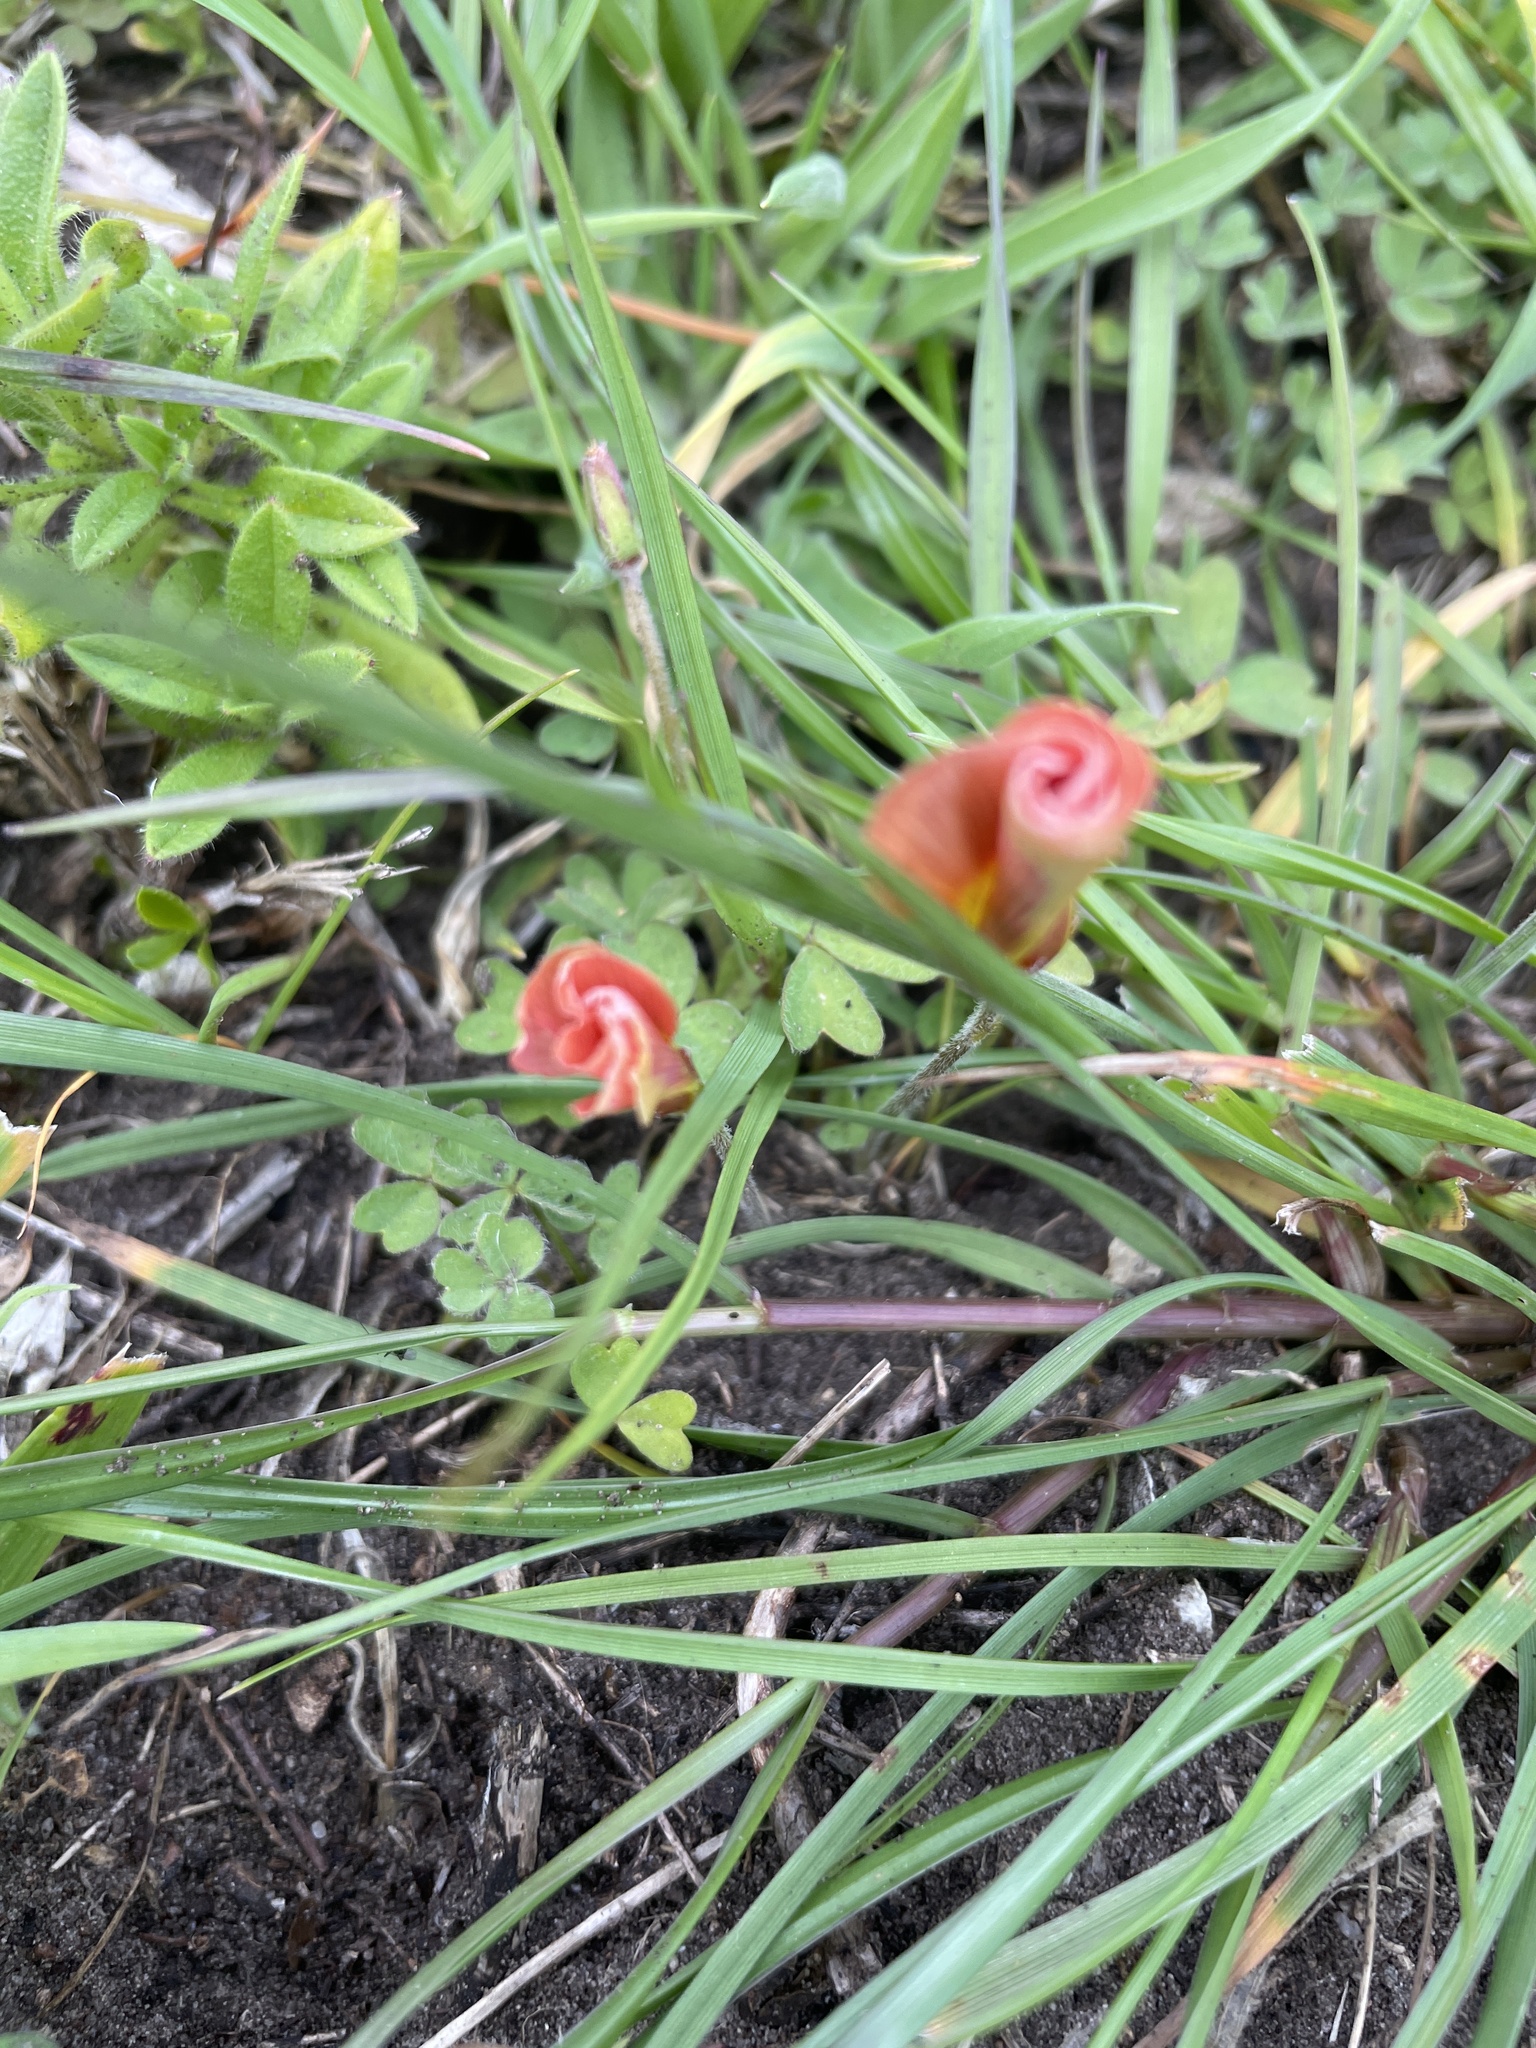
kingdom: Plantae
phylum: Tracheophyta
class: Magnoliopsida
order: Oxalidales
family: Oxalidaceae
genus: Oxalis
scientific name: Oxalis obtusa
